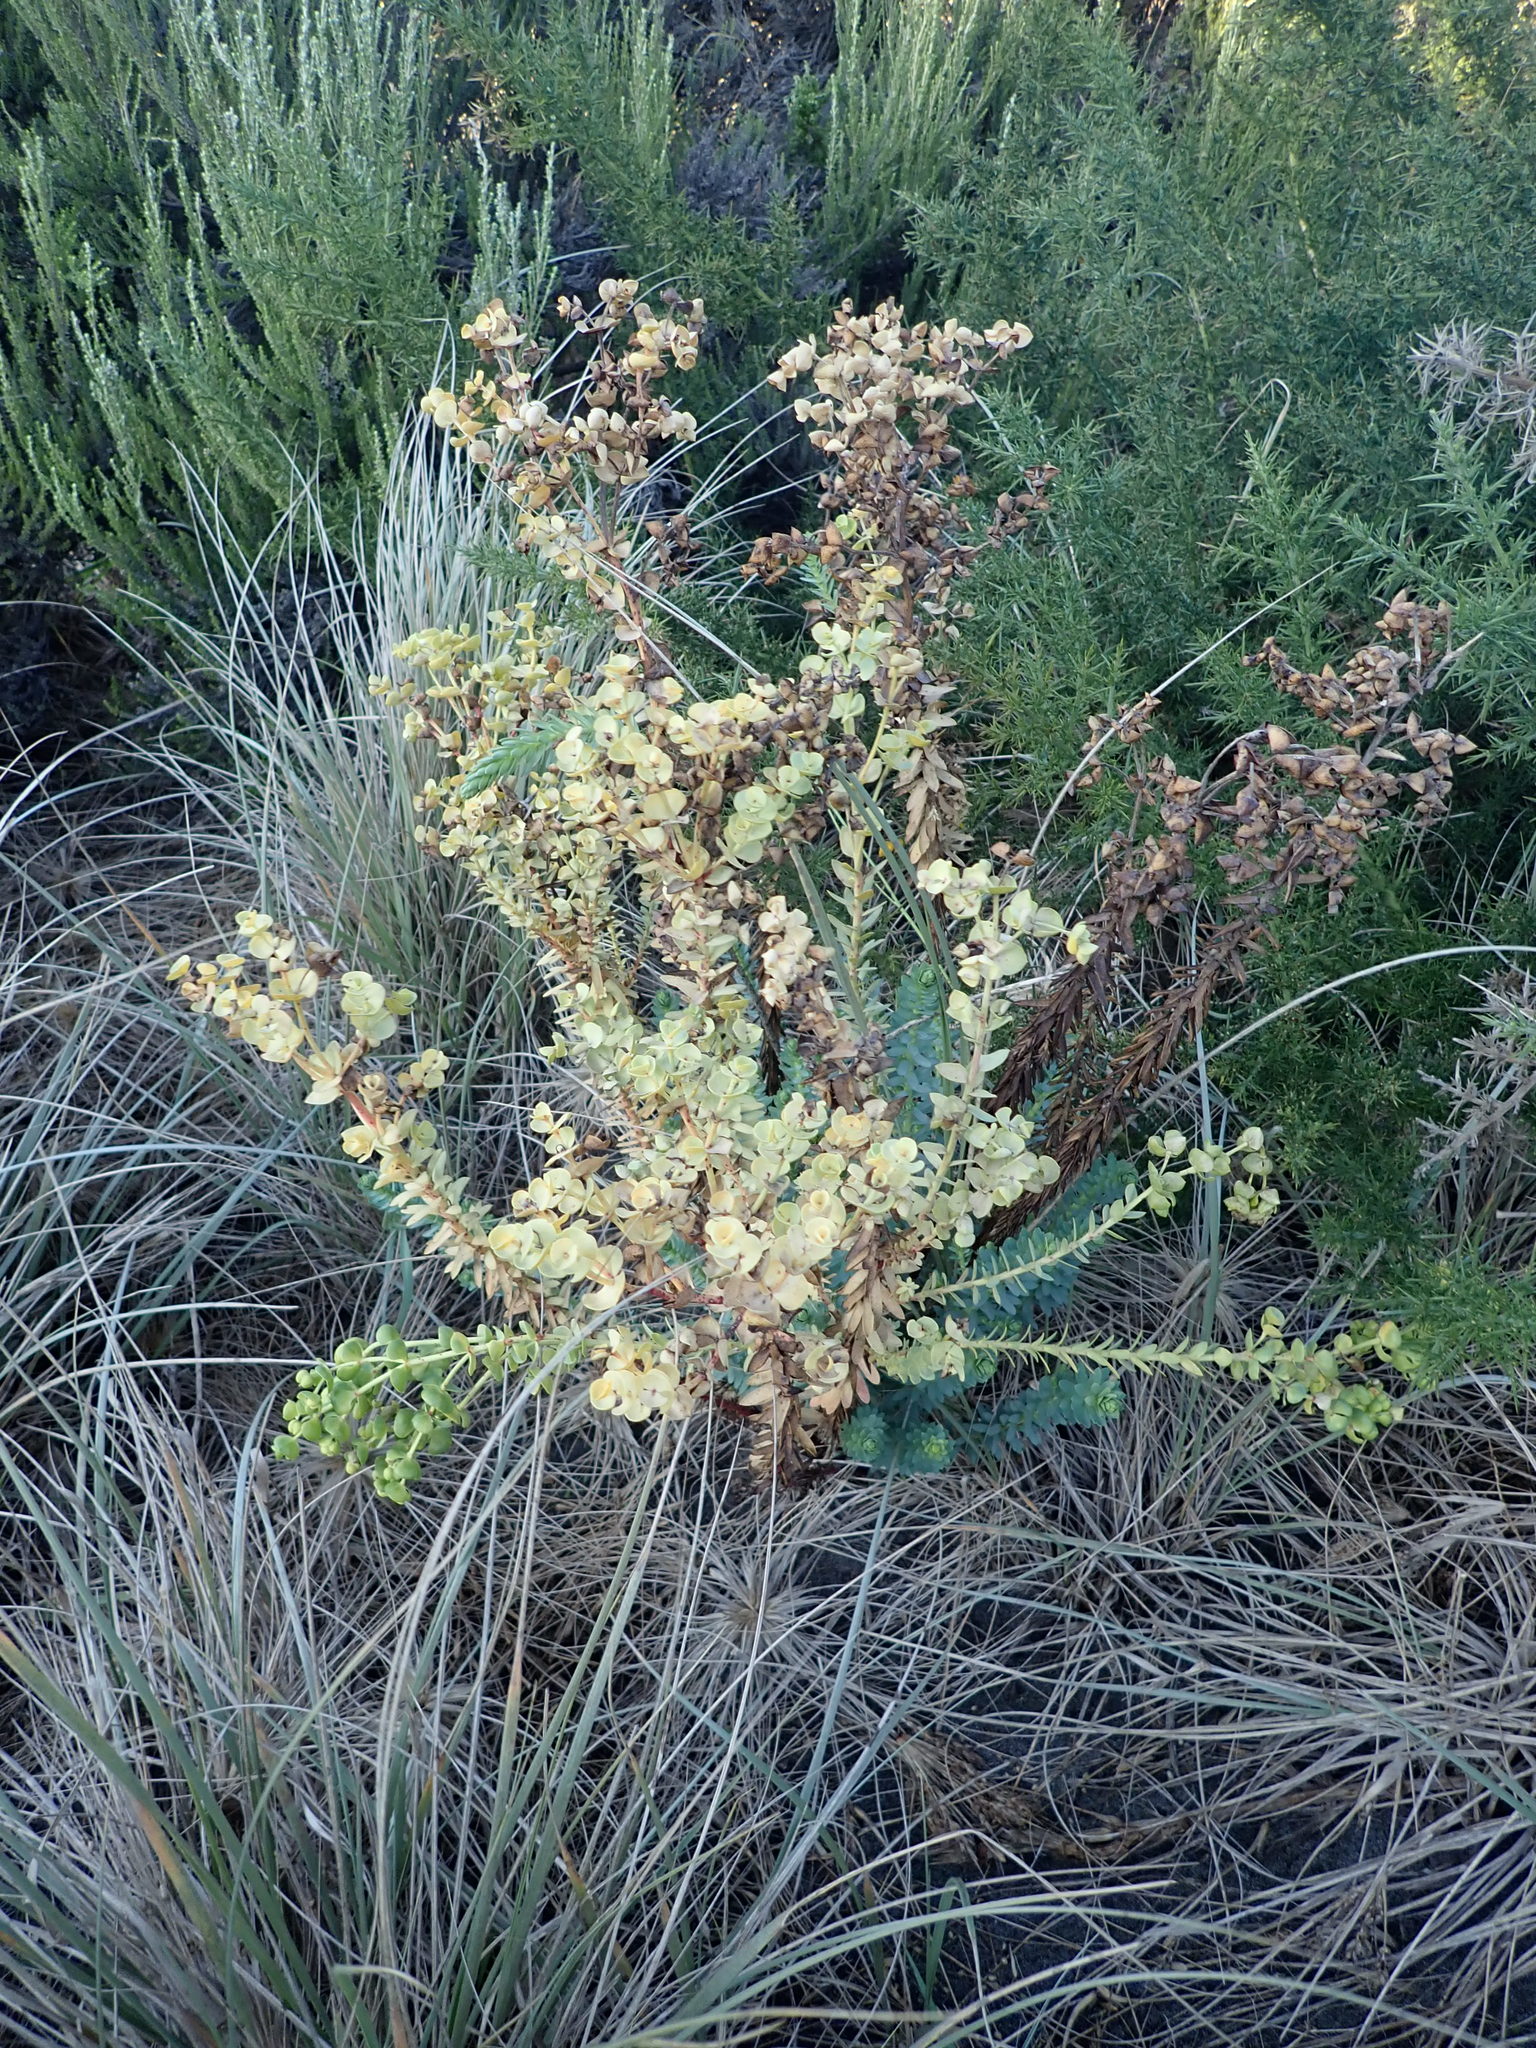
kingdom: Plantae
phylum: Tracheophyta
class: Magnoliopsida
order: Malpighiales
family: Euphorbiaceae
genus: Euphorbia
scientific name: Euphorbia paralias
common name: Sea spurge
